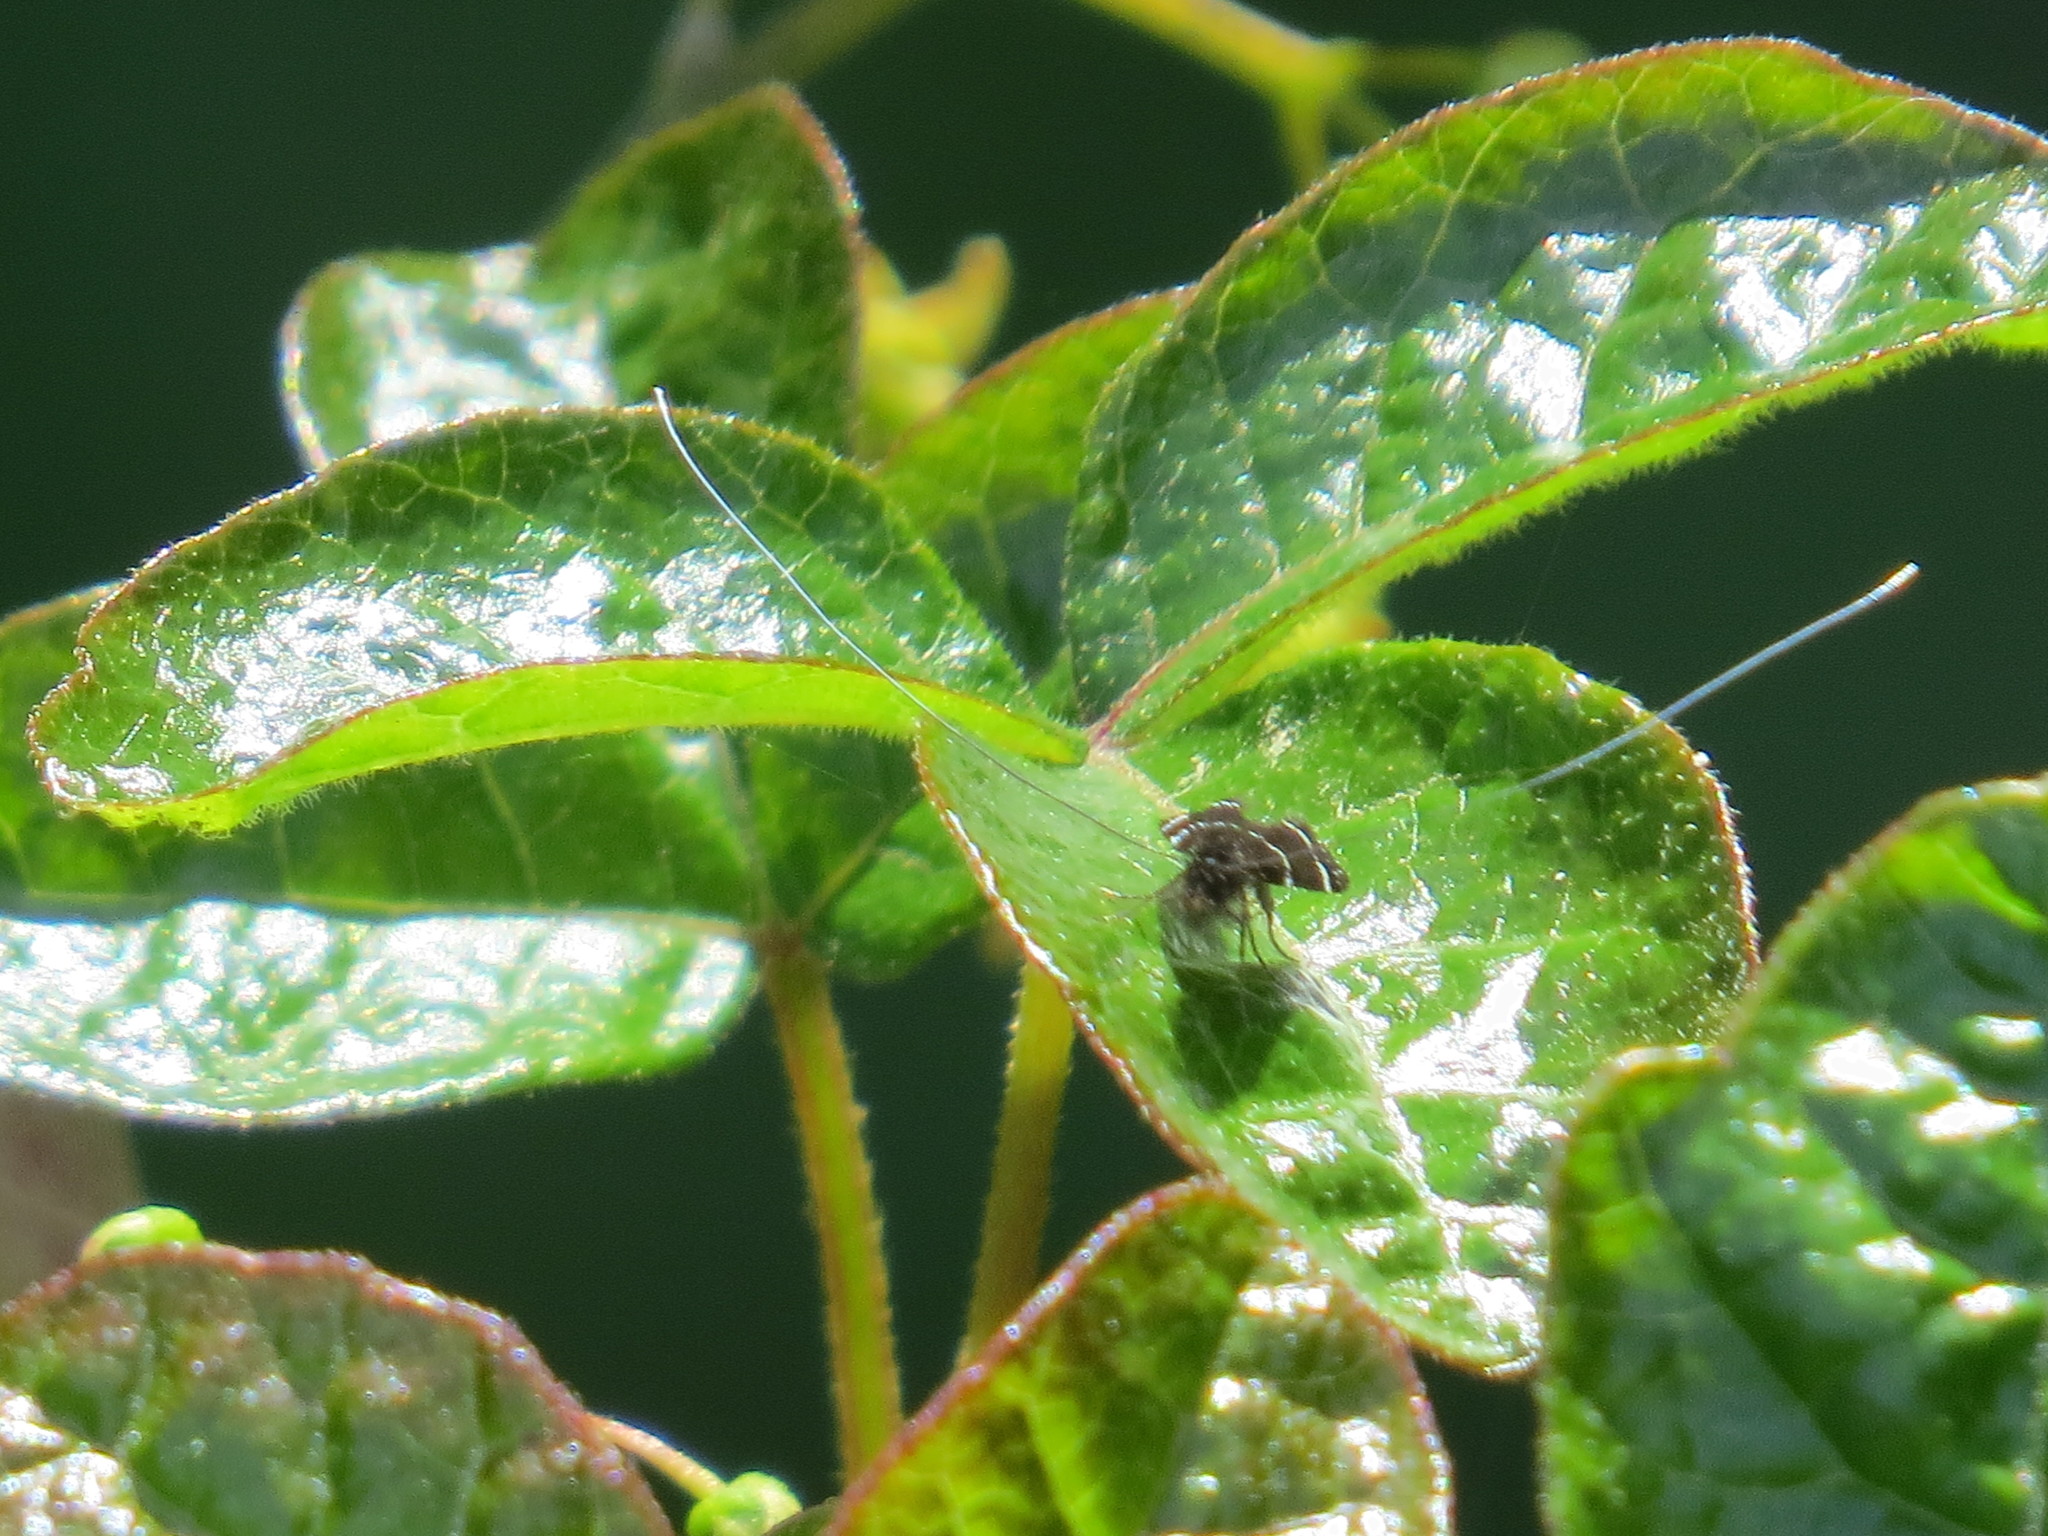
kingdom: Animalia
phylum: Arthropoda
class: Insecta
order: Lepidoptera
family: Adelidae
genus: Adela
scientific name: Adela septentrionella
